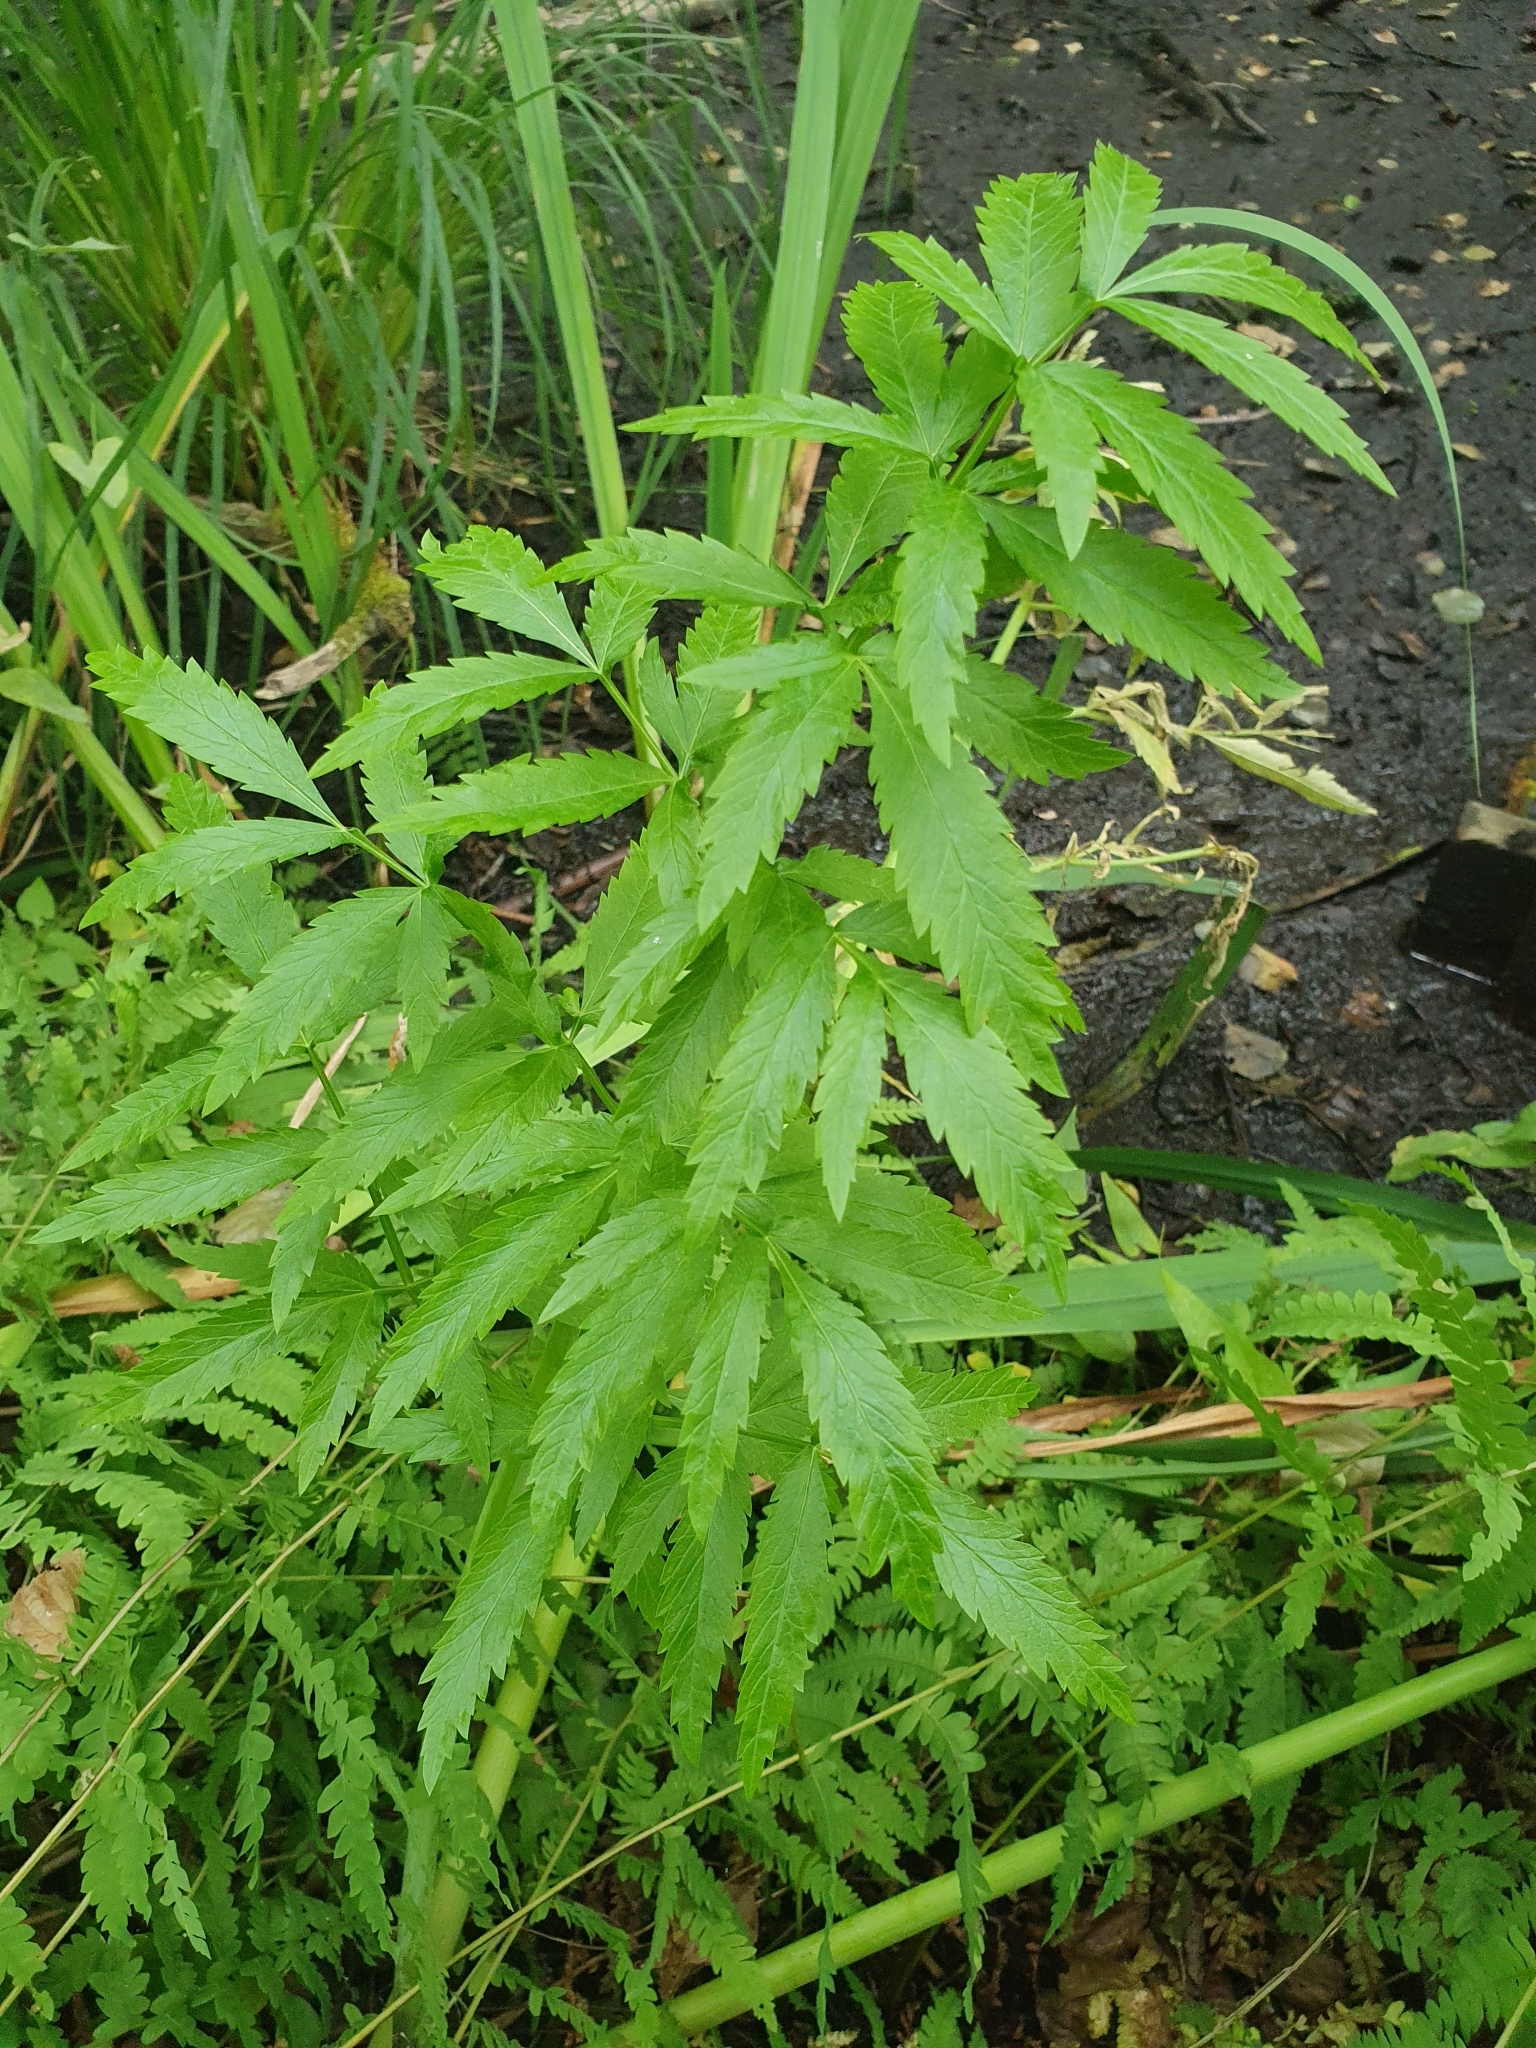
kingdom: Plantae
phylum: Tracheophyta
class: Magnoliopsida
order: Apiales
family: Apiaceae
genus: Cicuta
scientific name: Cicuta virosa
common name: Cowbane
